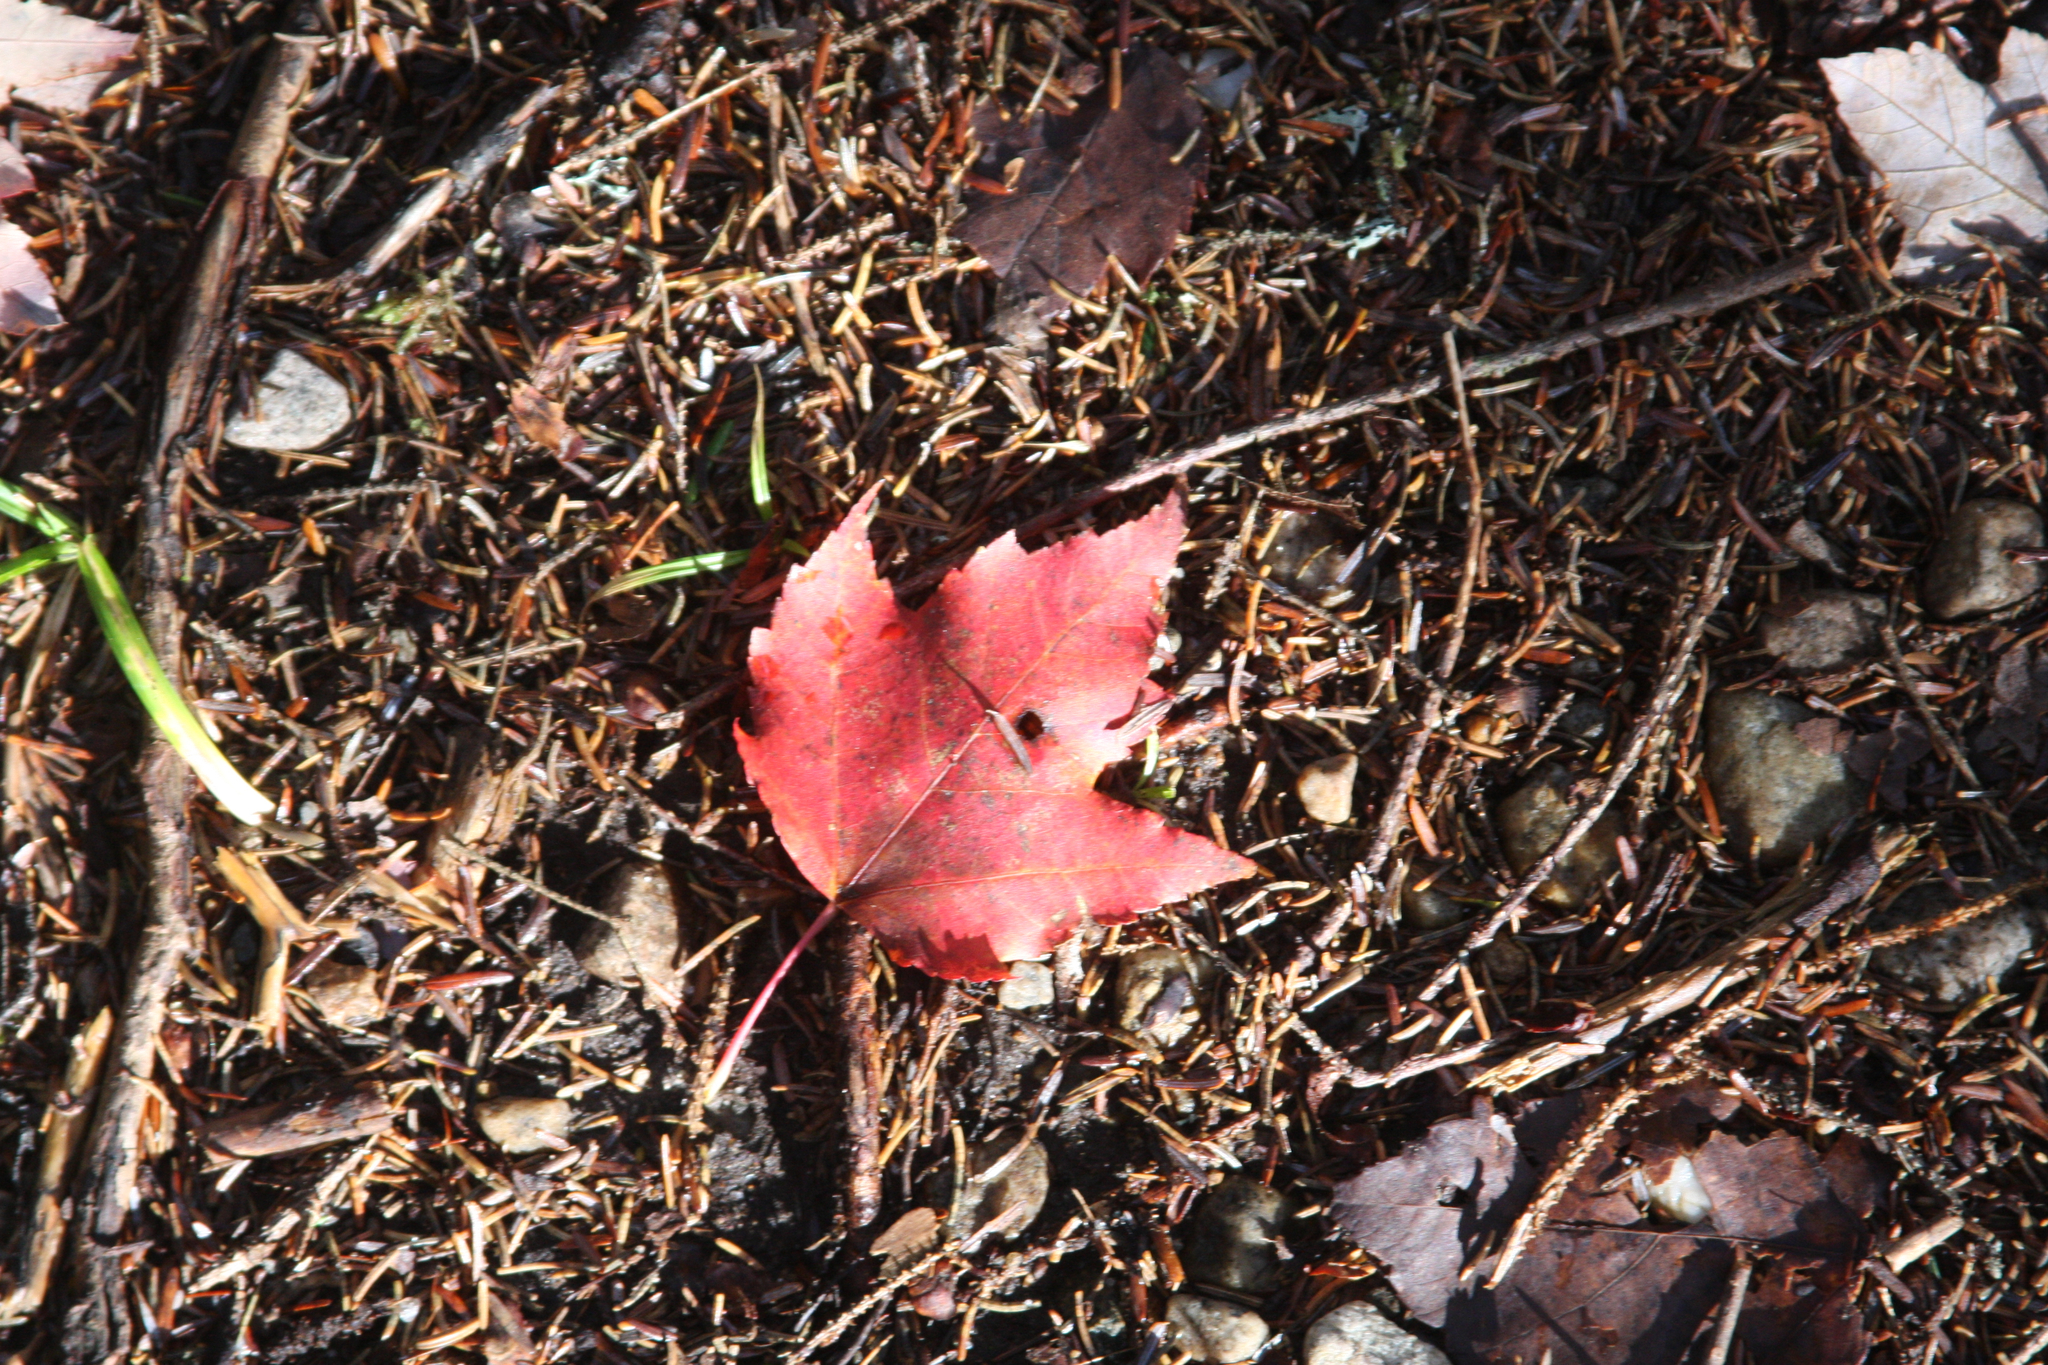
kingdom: Plantae
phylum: Tracheophyta
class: Magnoliopsida
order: Sapindales
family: Sapindaceae
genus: Acer
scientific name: Acer rubrum
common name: Red maple
